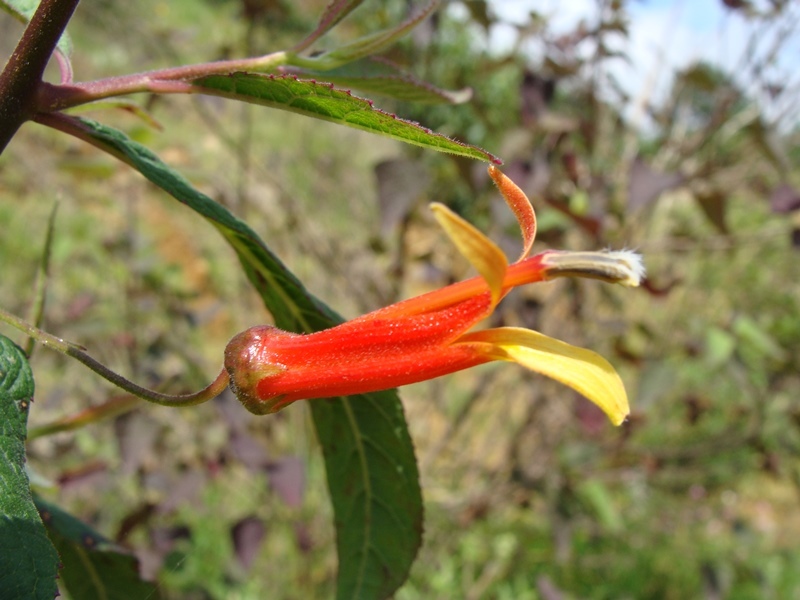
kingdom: Plantae
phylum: Tracheophyta
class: Magnoliopsida
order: Asterales
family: Campanulaceae
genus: Lobelia
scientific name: Lobelia laxiflora
